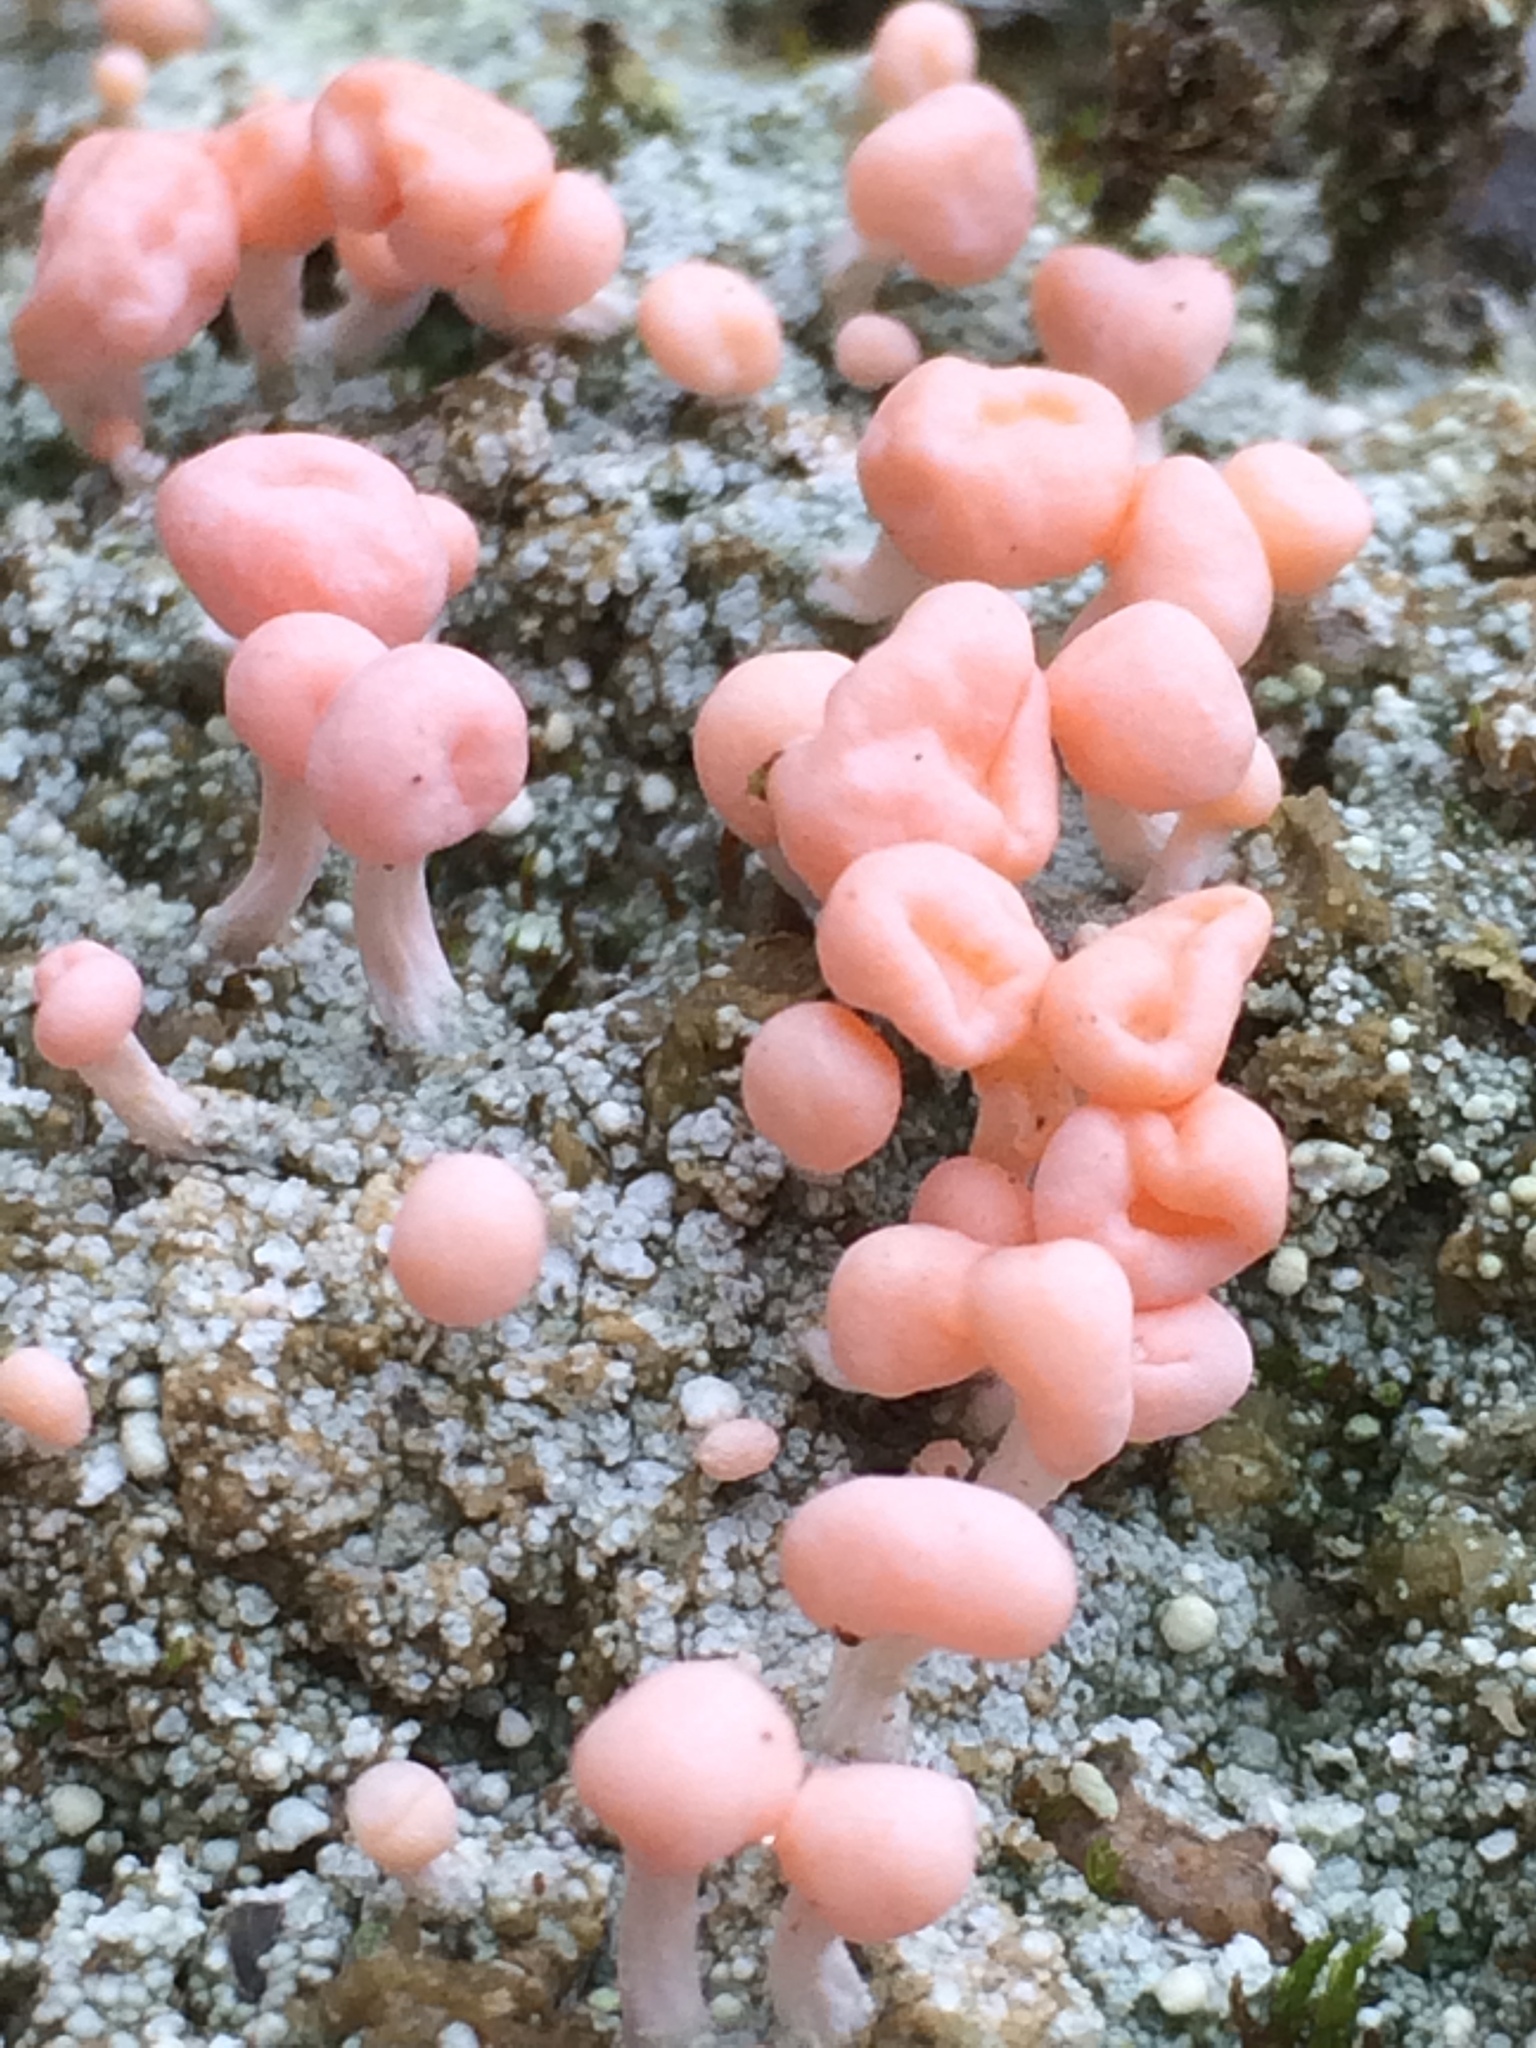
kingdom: Fungi
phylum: Ascomycota
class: Lecanoromycetes
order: Pertusariales
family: Icmadophilaceae
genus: Dibaeis
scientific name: Dibaeis baeomyces
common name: Pink earth lichen
